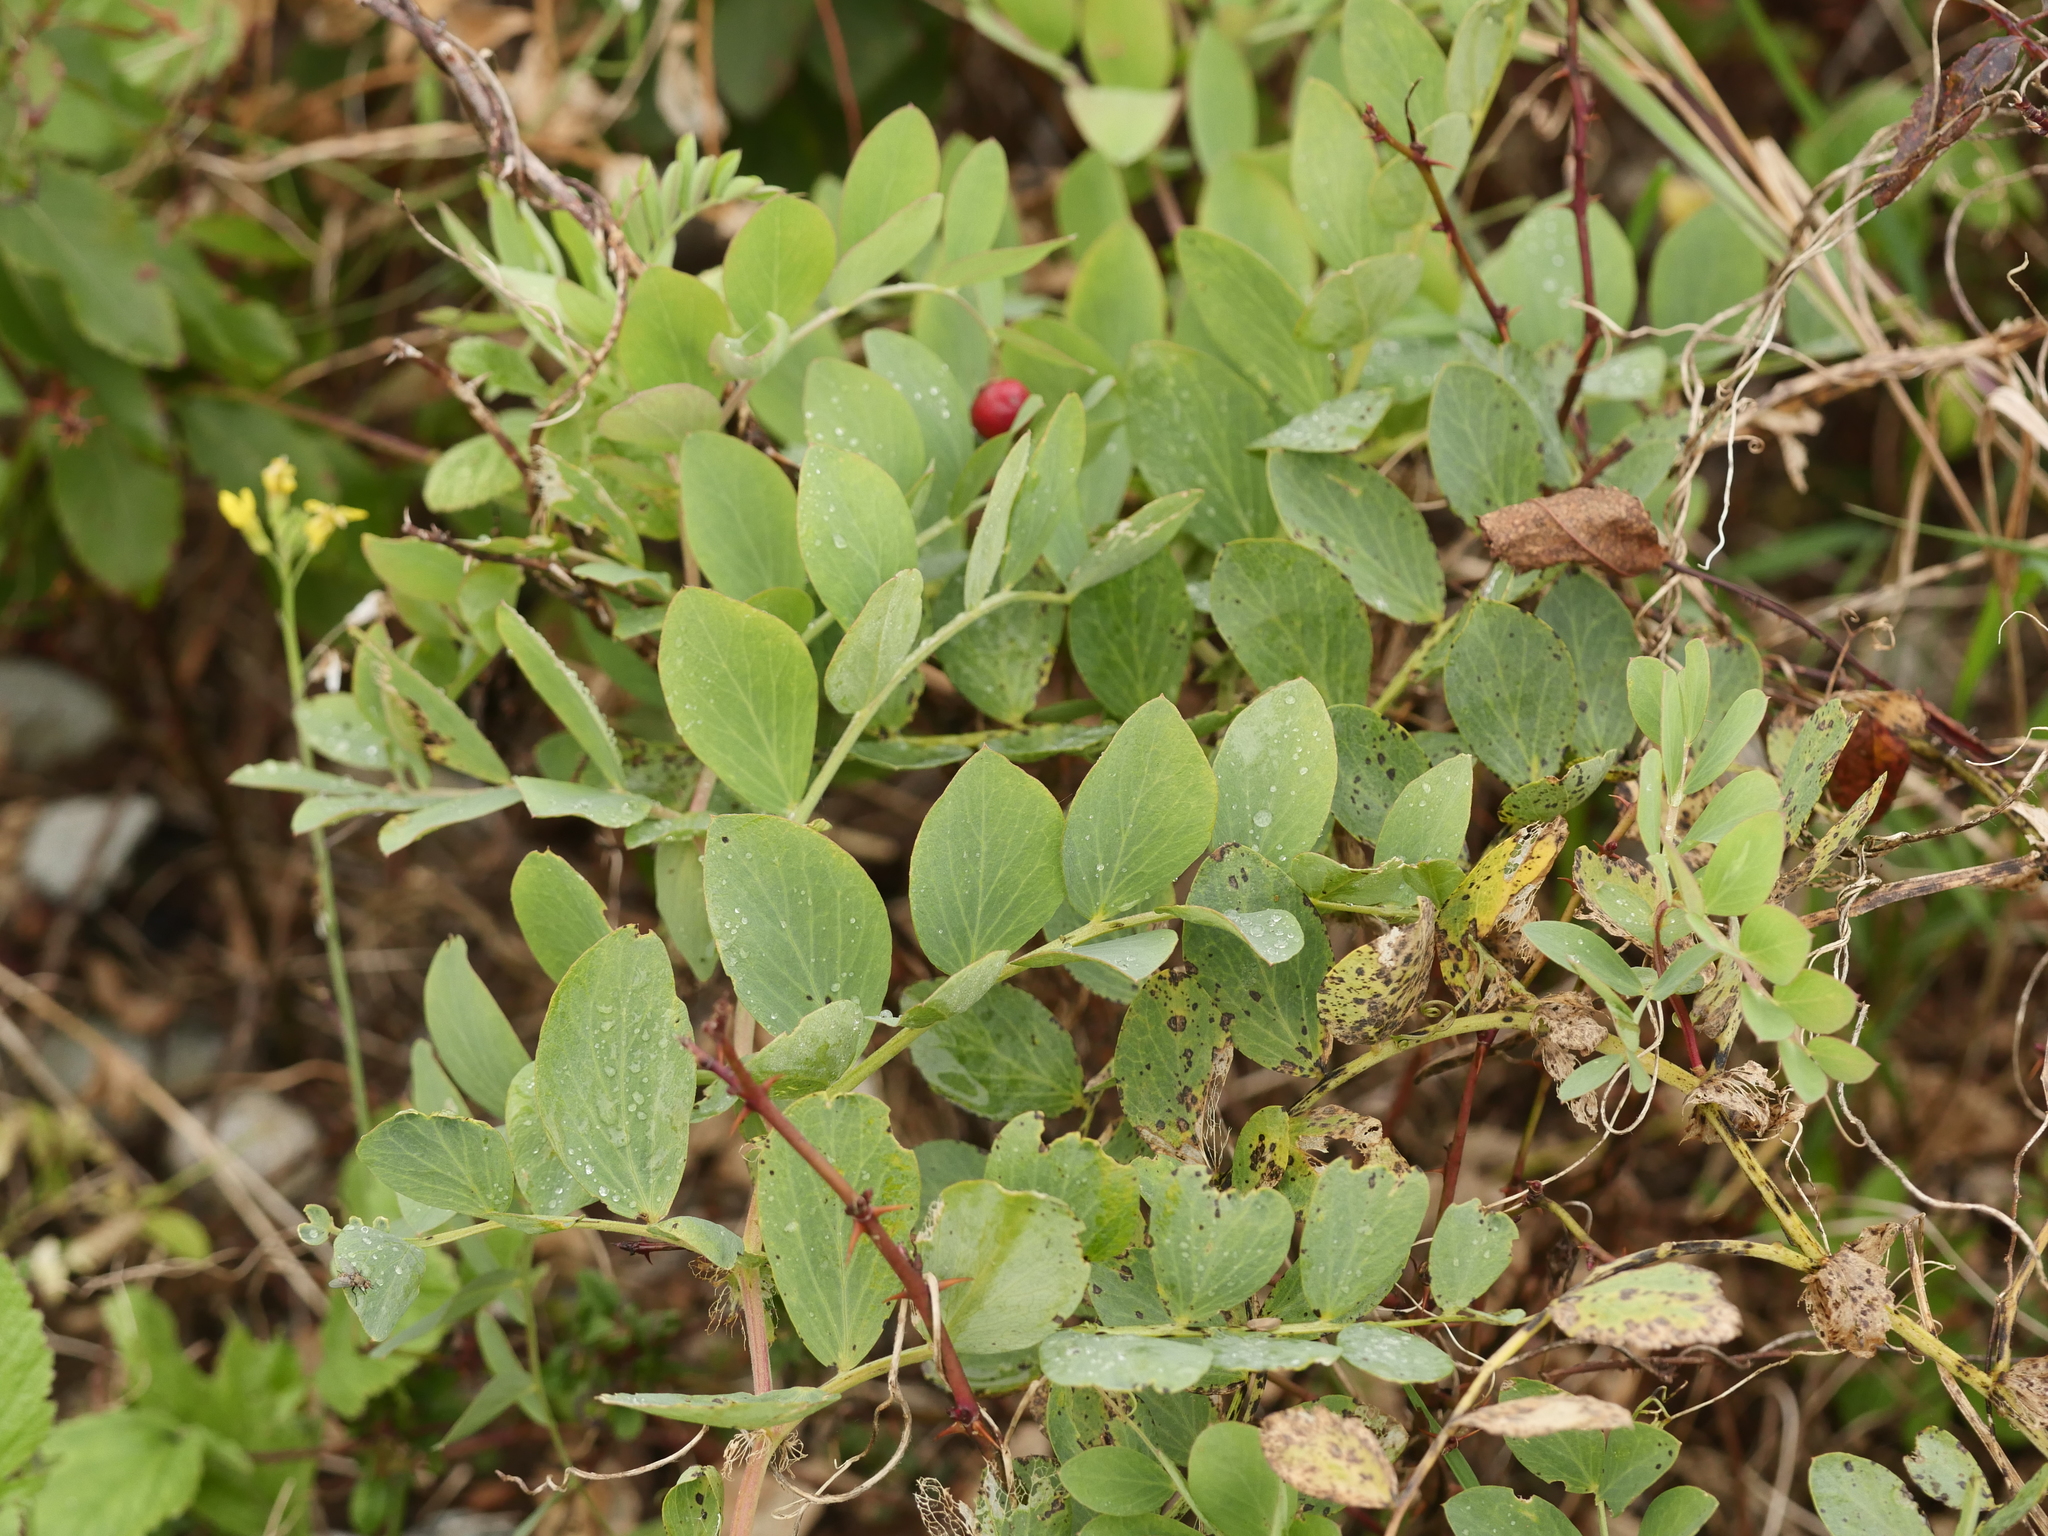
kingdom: Plantae
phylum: Tracheophyta
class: Magnoliopsida
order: Fabales
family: Fabaceae
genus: Lathyrus
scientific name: Lathyrus japonicus
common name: Sea pea
